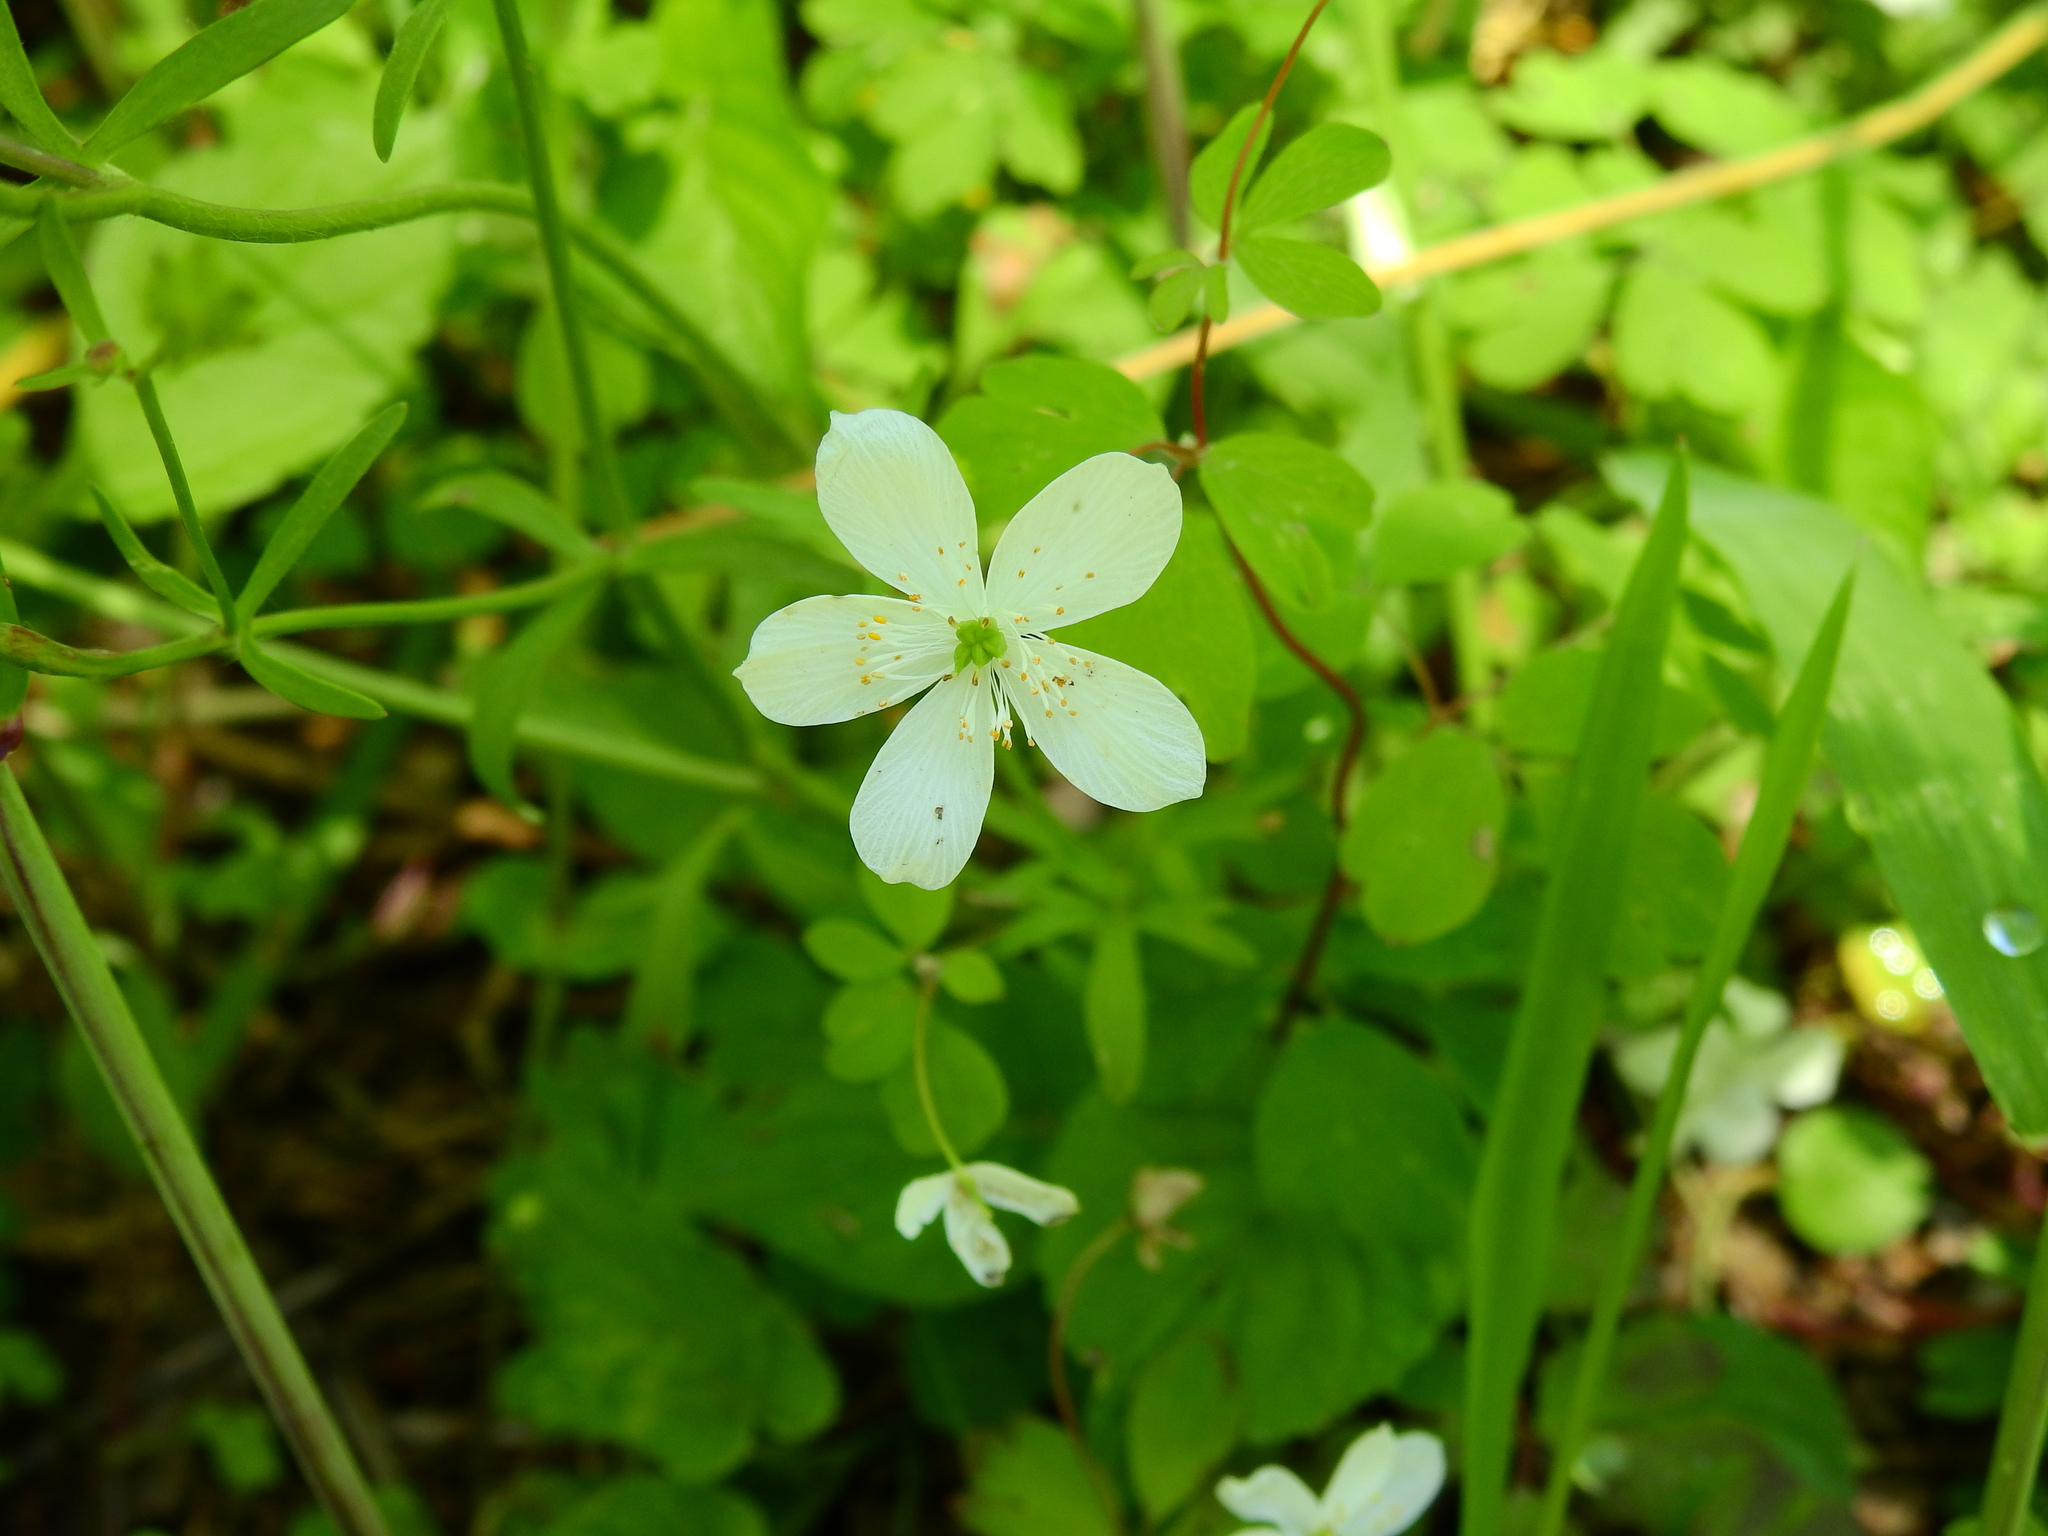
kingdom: Plantae
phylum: Tracheophyta
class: Magnoliopsida
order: Ranunculales
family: Ranunculaceae
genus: Enemion
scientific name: Enemion biternatum
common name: Eastern false rue-anemone
